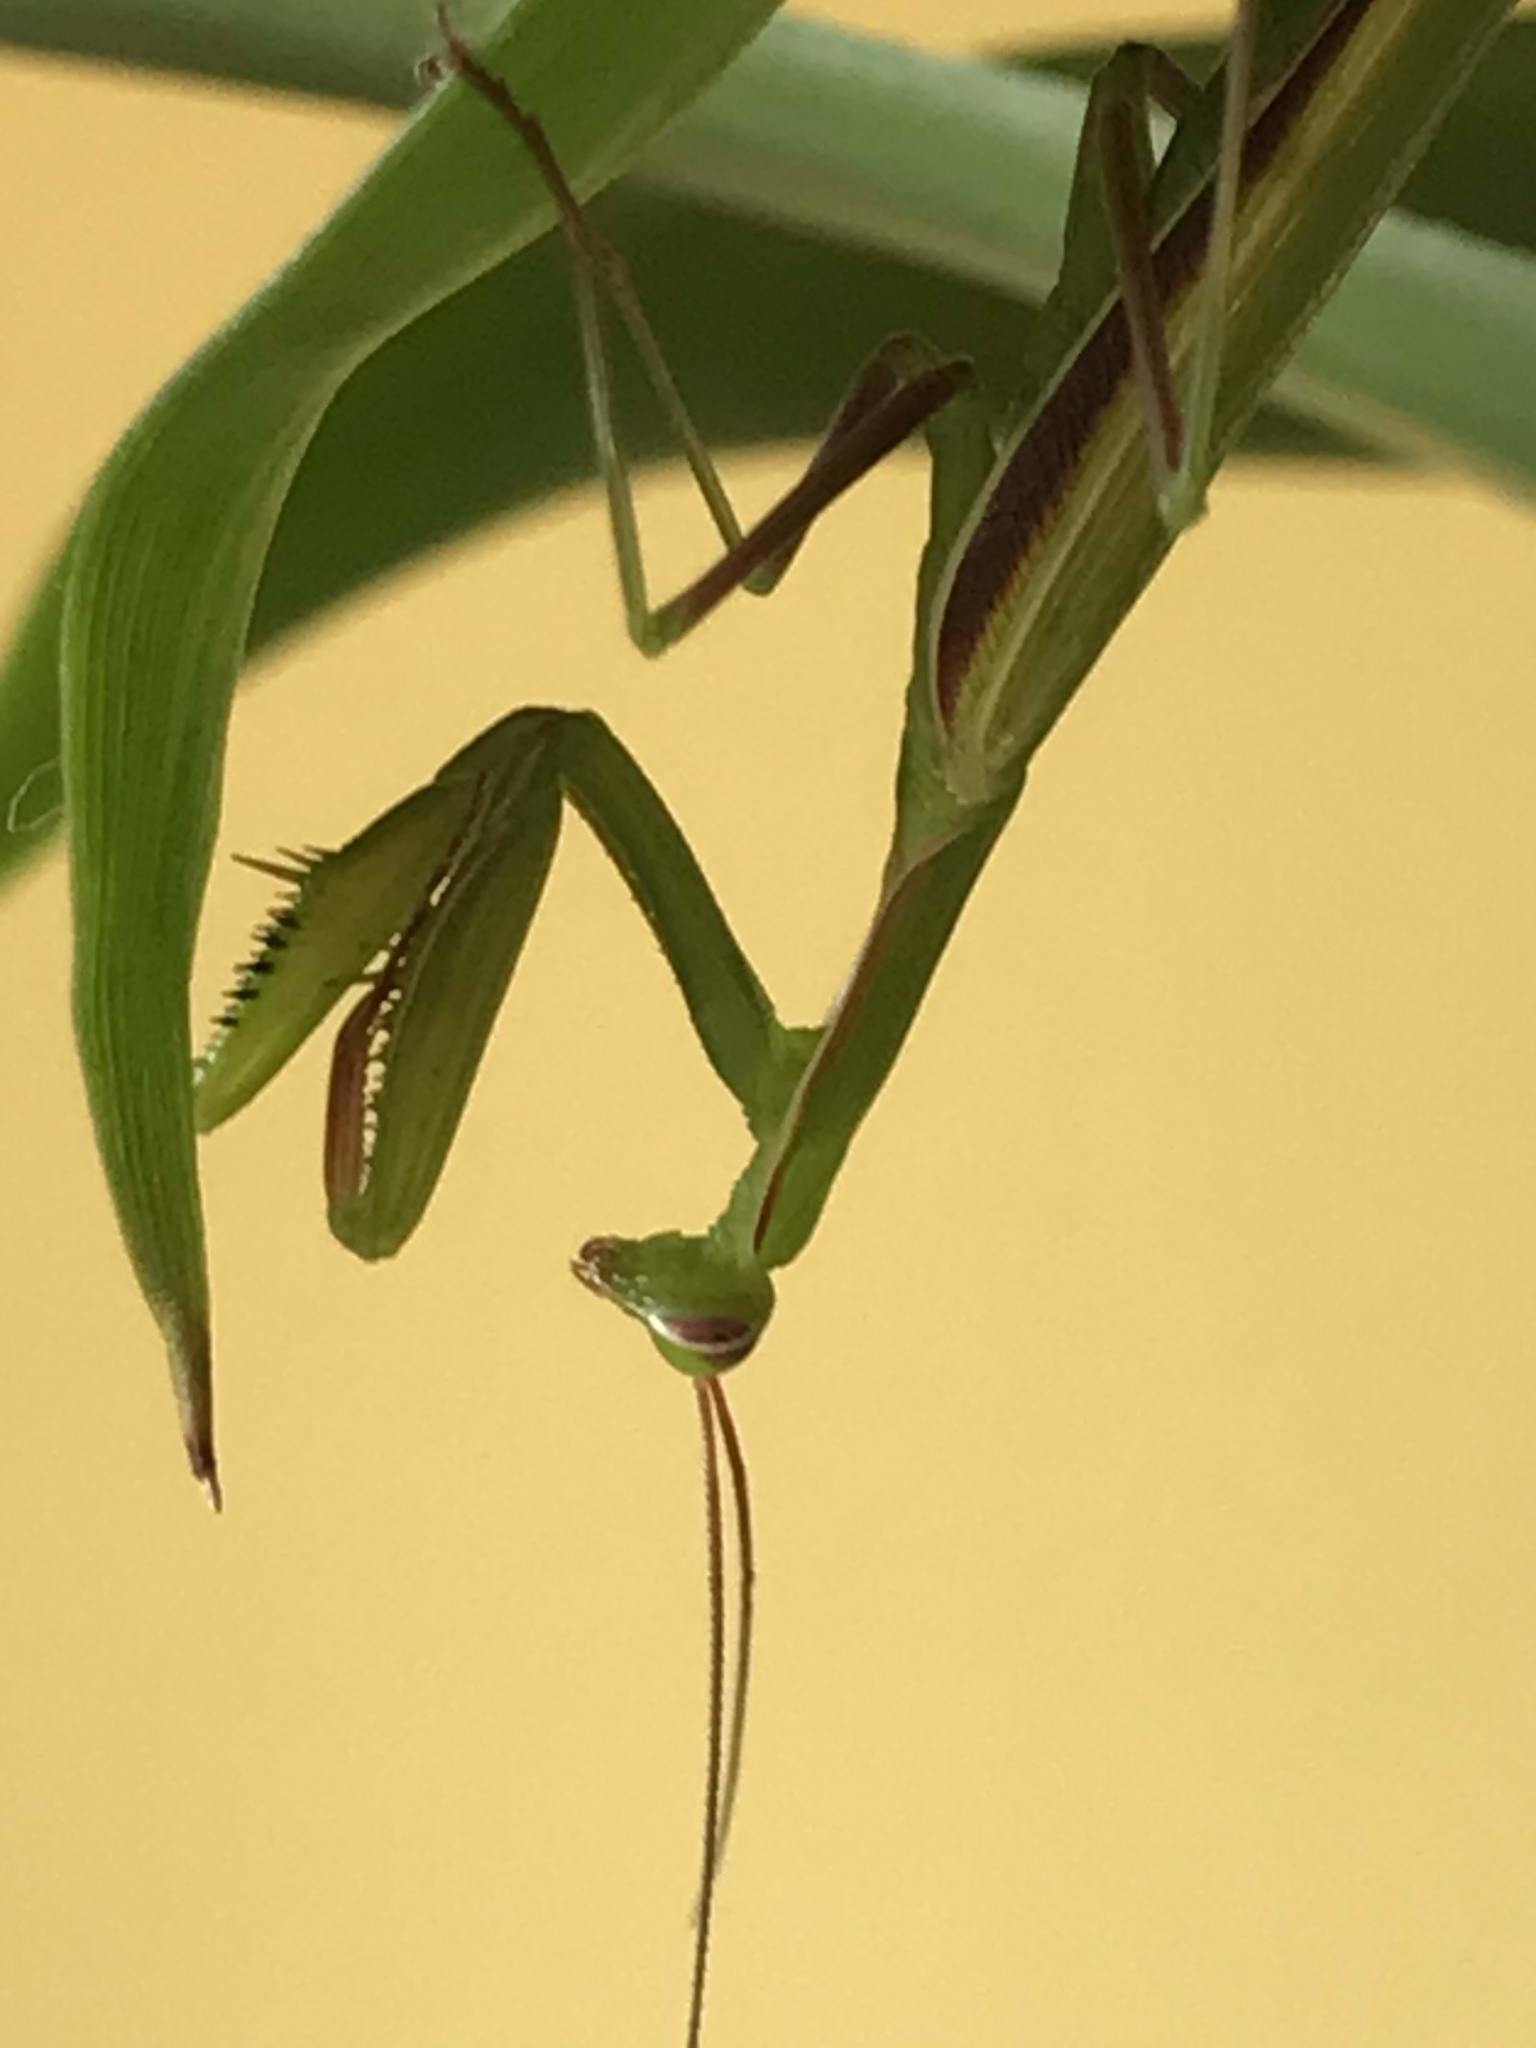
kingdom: Animalia
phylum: Arthropoda
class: Insecta
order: Mantodea
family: Mantidae
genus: Mantis
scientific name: Mantis religiosa
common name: Praying mantis
